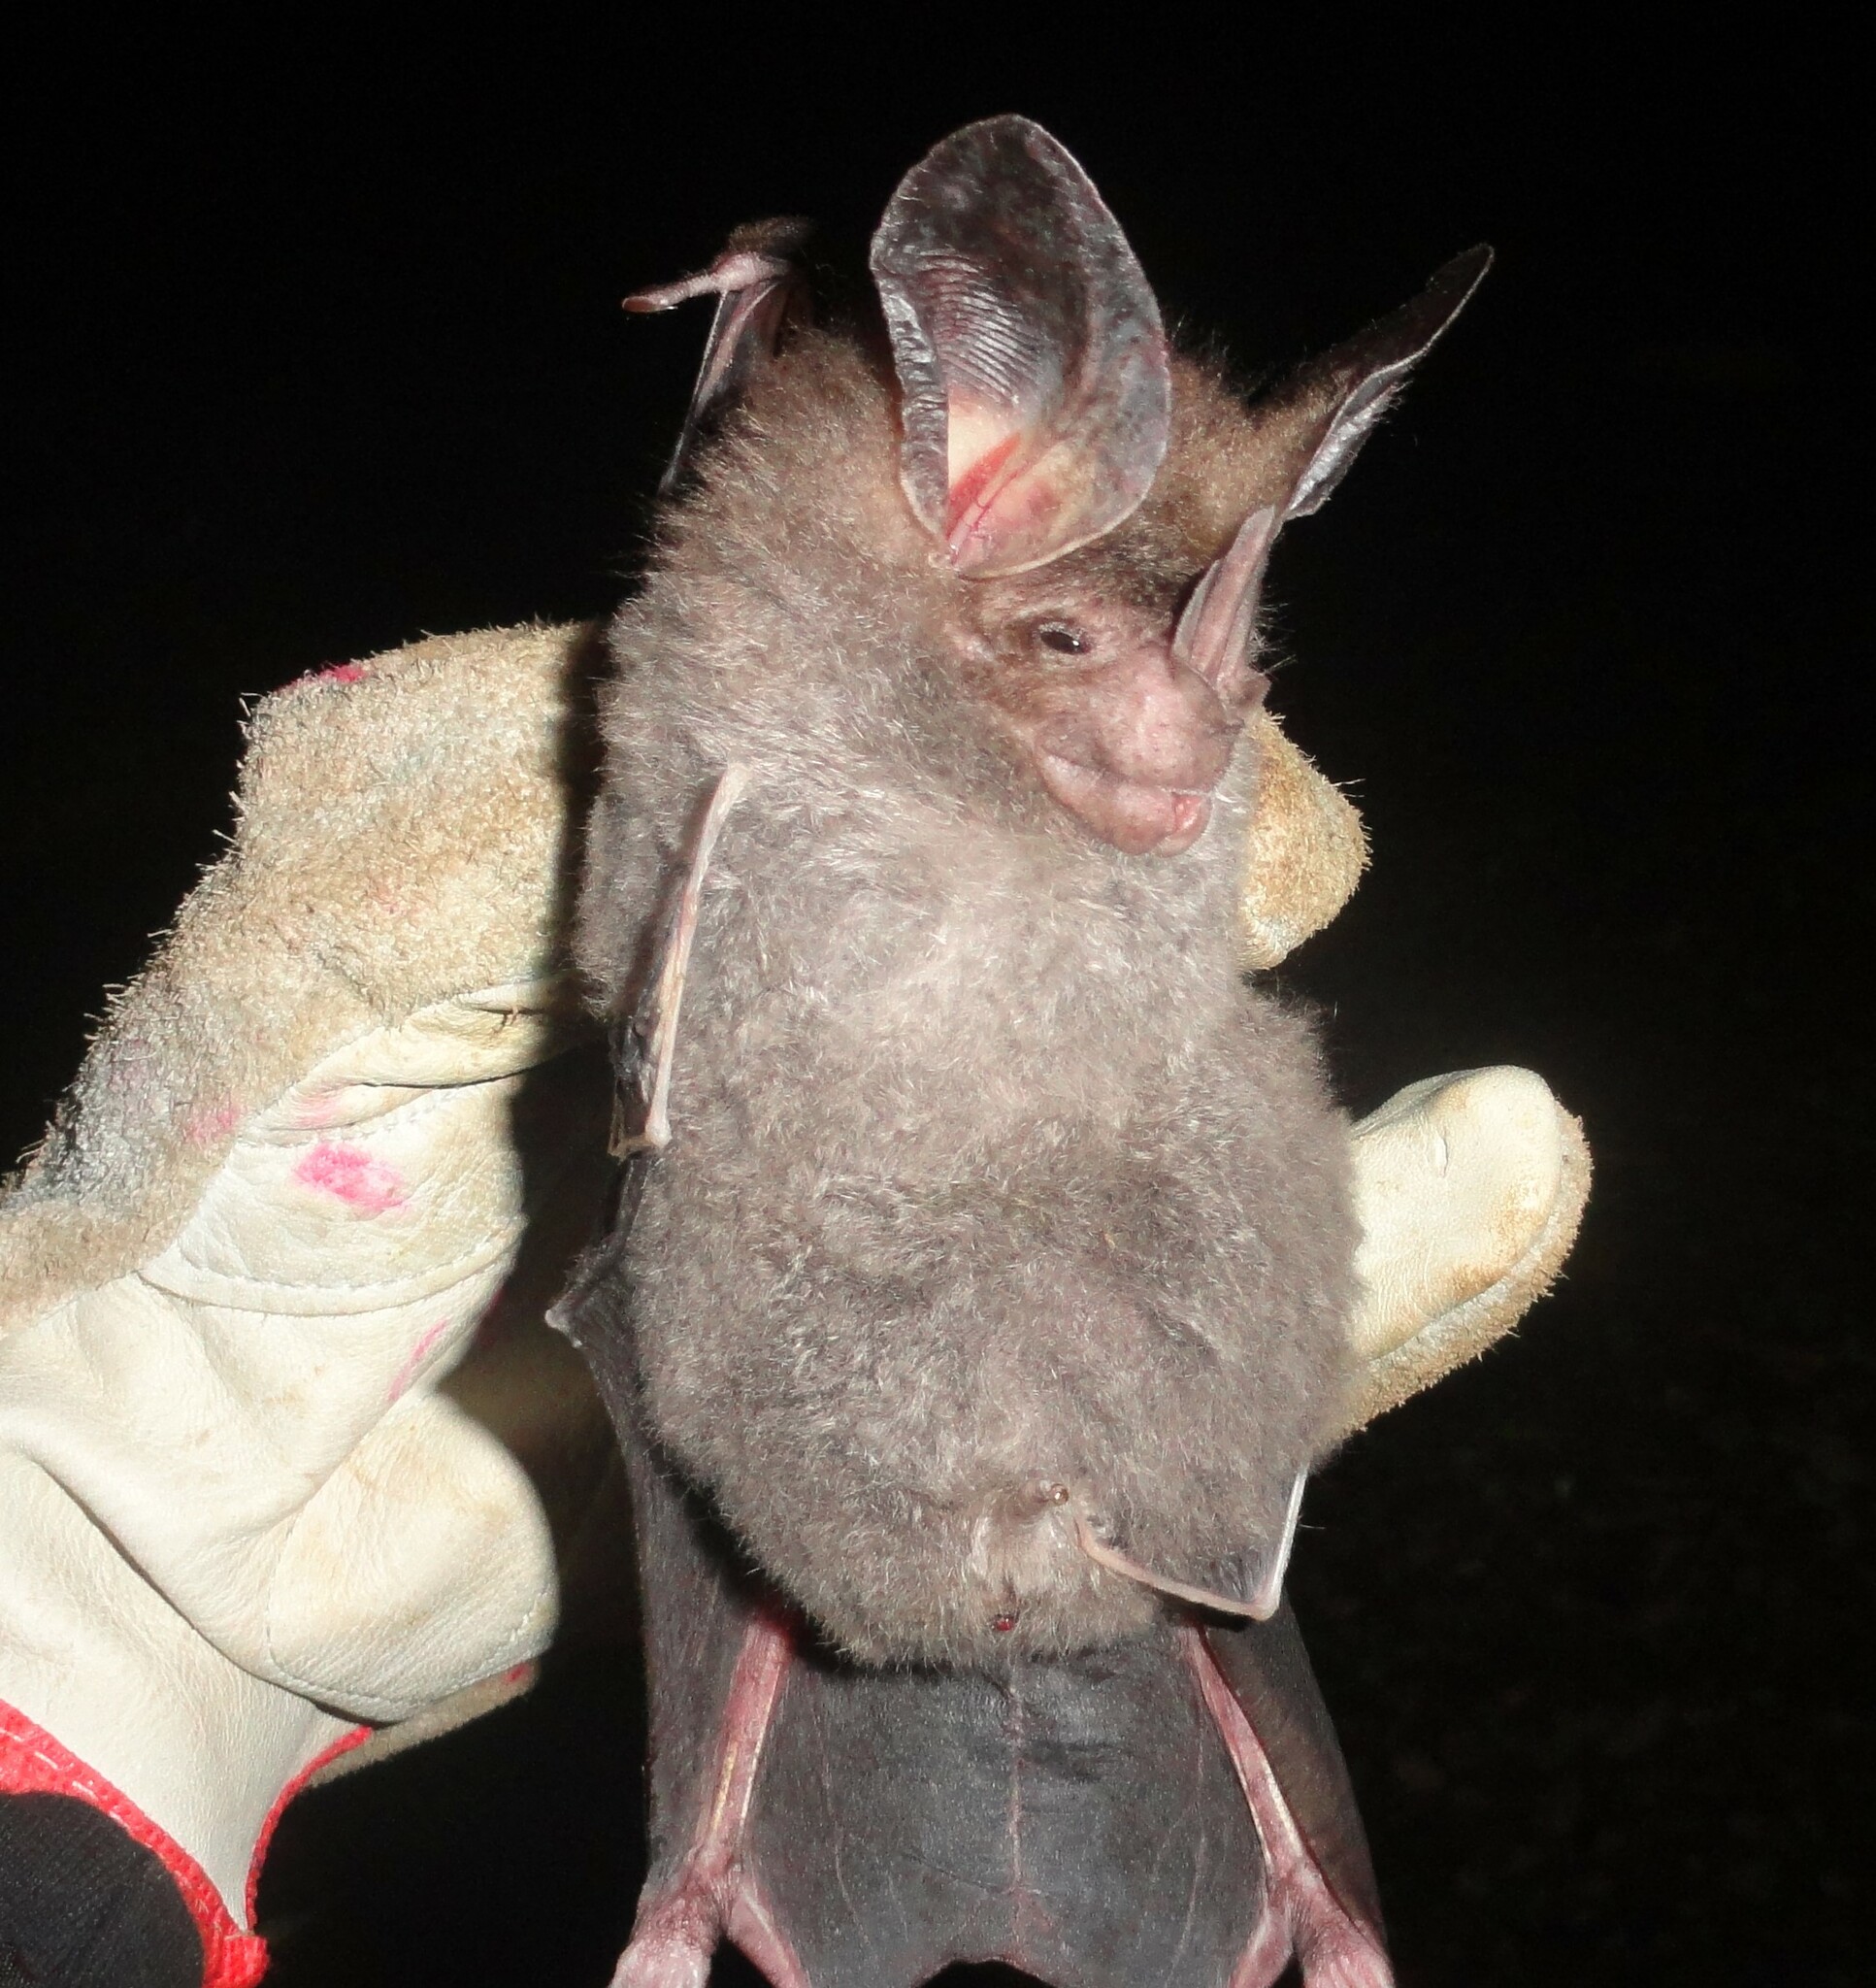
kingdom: Animalia
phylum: Chordata
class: Mammalia
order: Chiroptera
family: Phyllostomidae
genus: Chrotopterus
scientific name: Chrotopterus auritus
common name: Woolly false vampire bat
